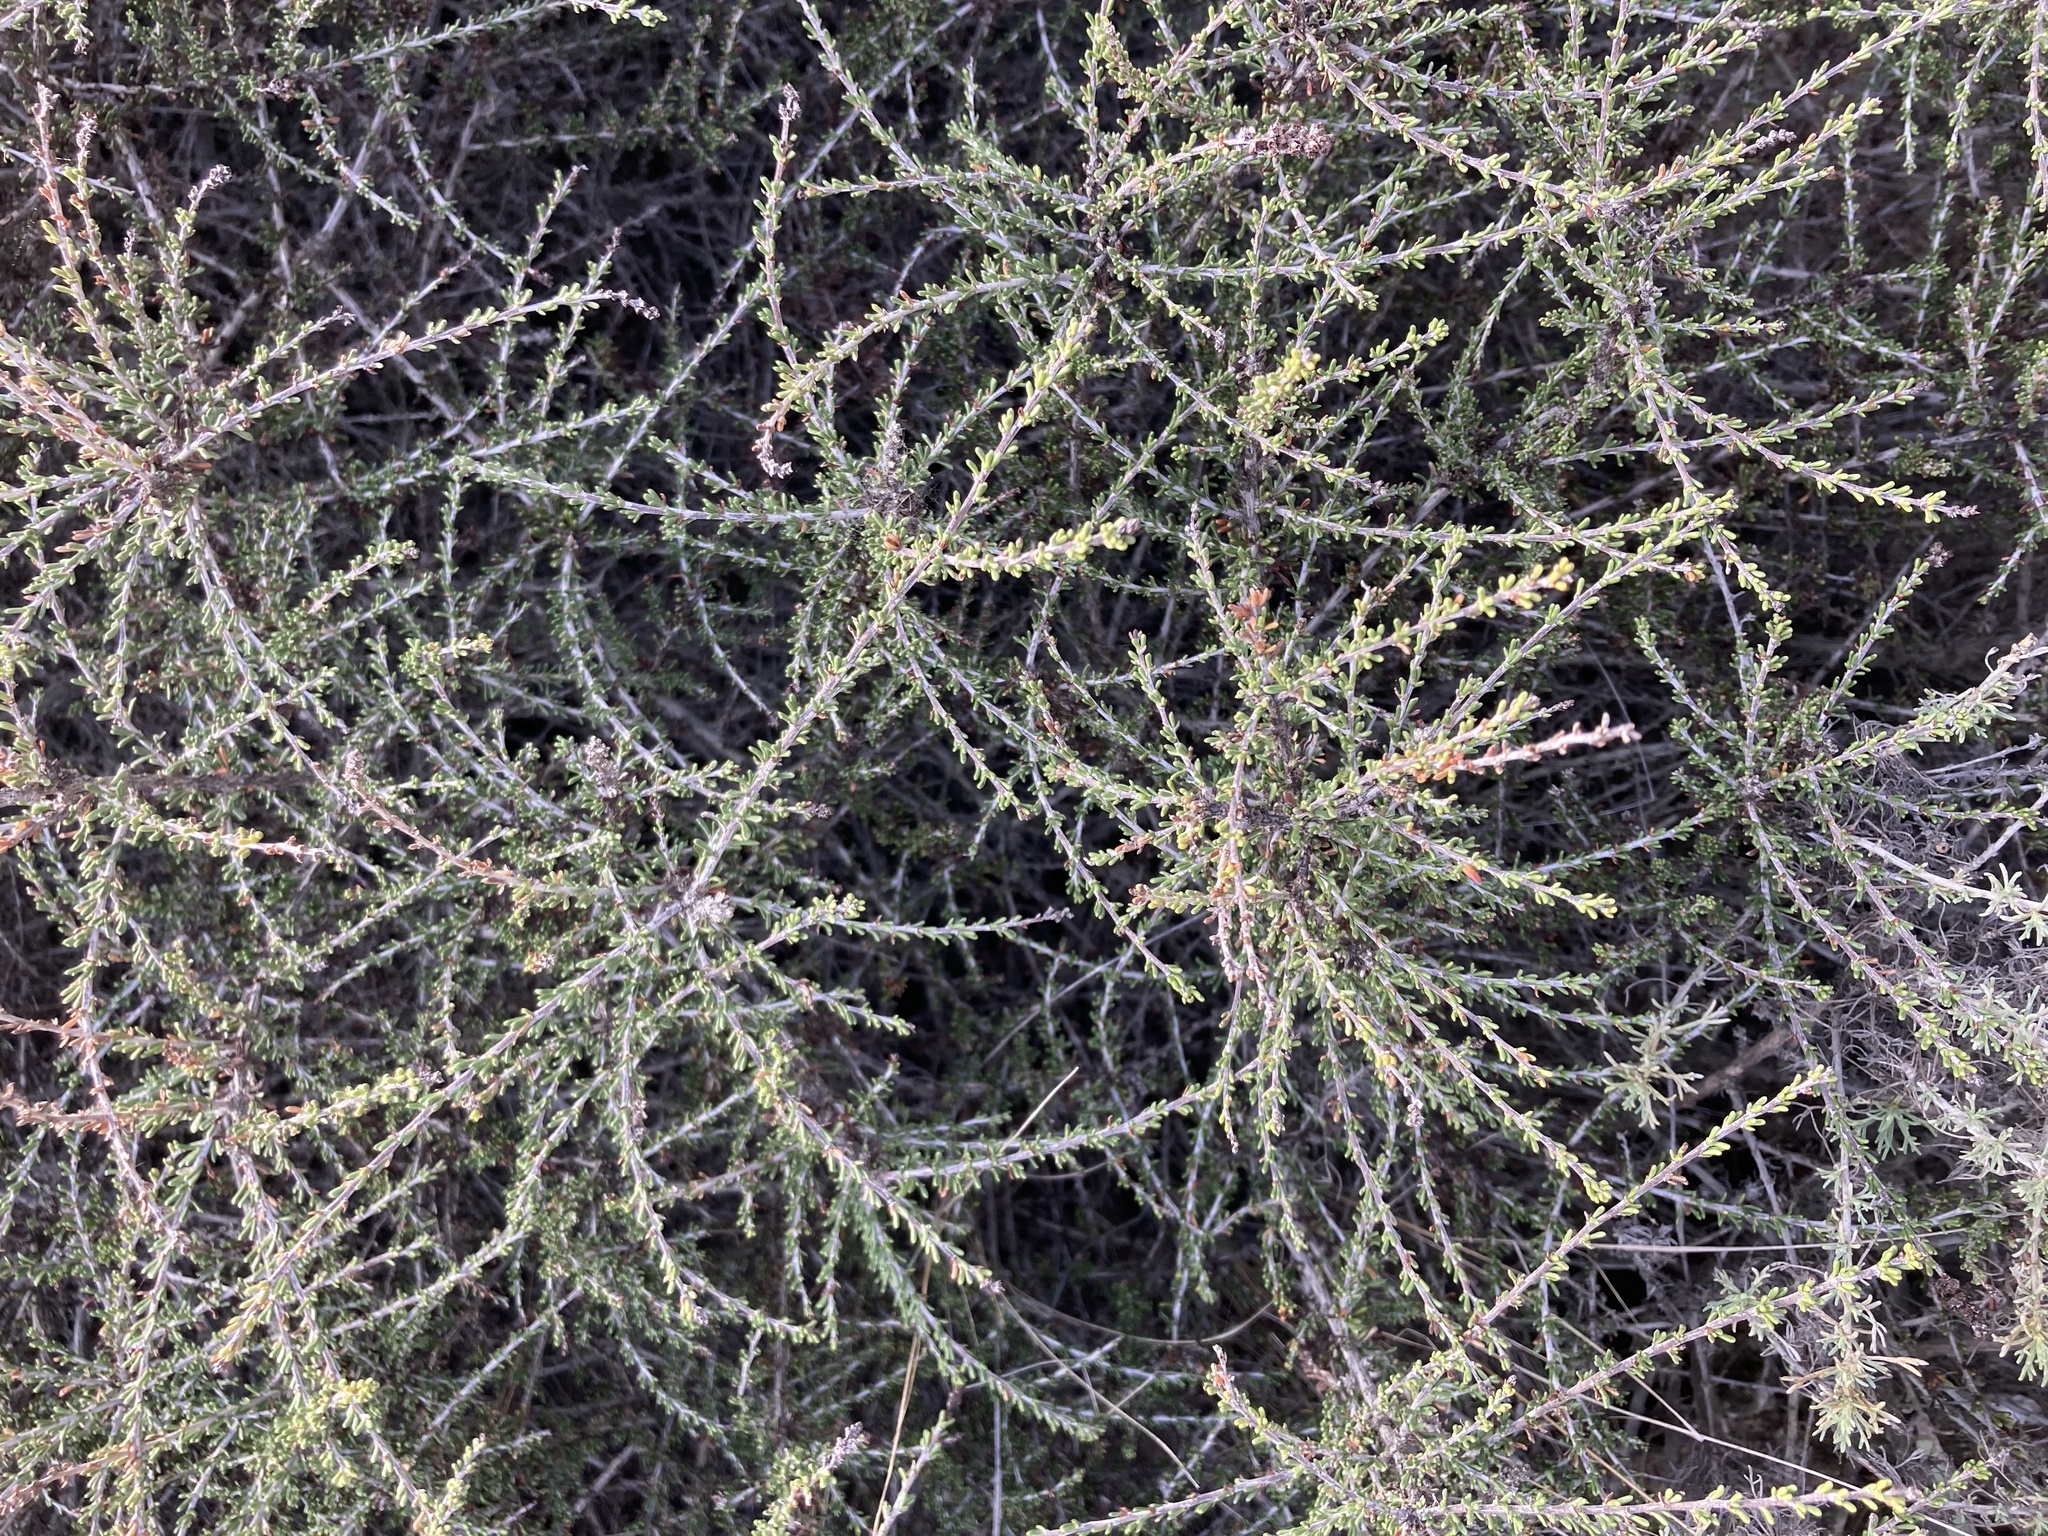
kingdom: Plantae
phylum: Tracheophyta
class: Magnoliopsida
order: Rosales
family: Rosaceae
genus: Adenostoma
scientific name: Adenostoma fasciculatum
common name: Chamise
